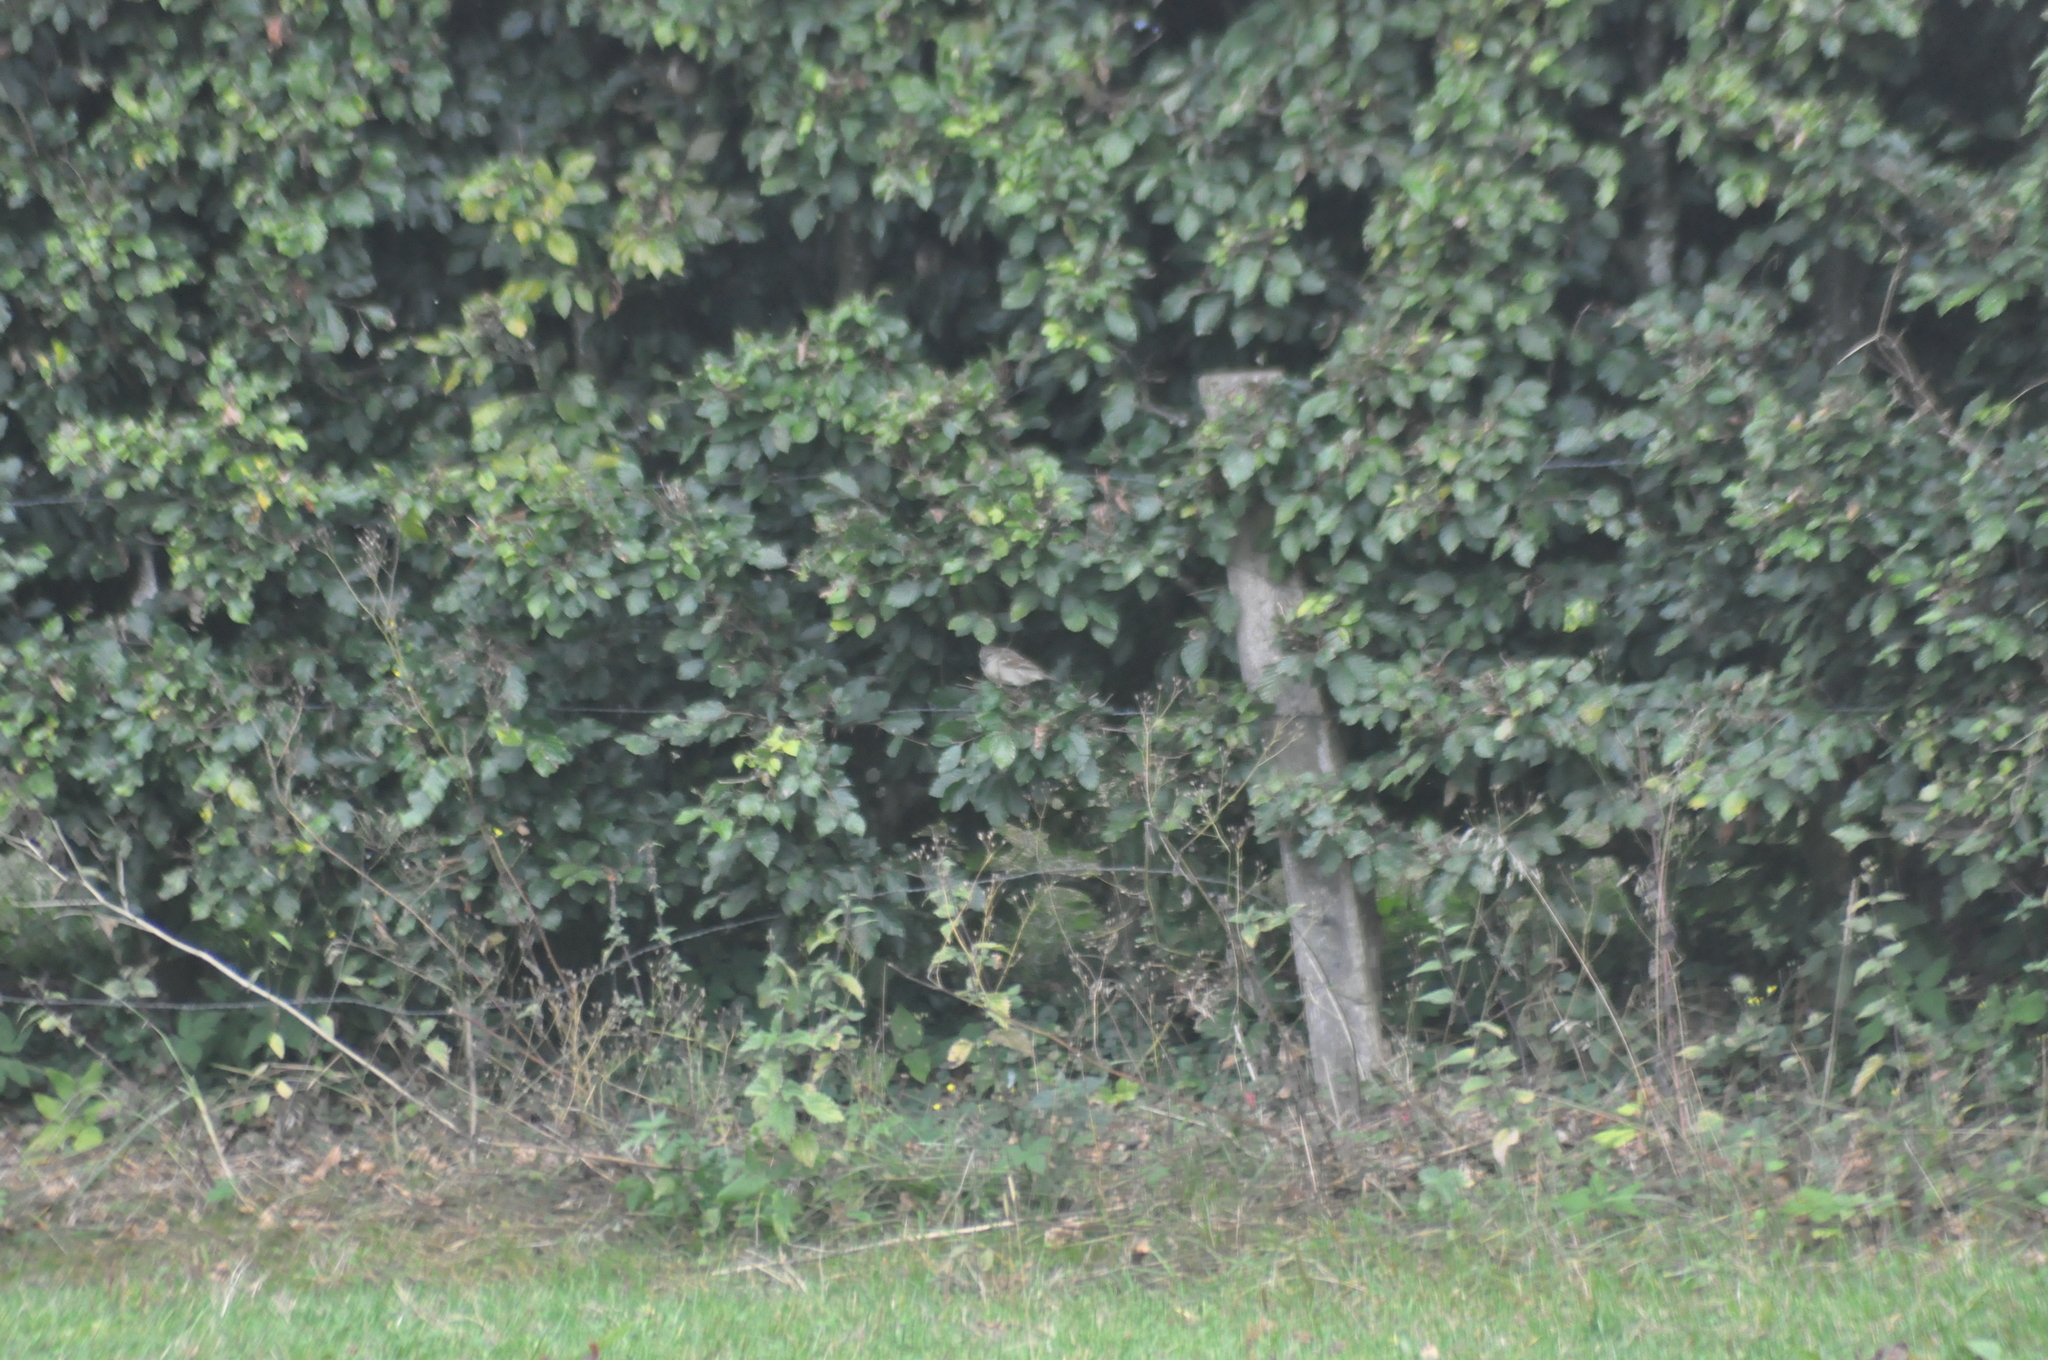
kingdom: Animalia
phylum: Chordata
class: Aves
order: Passeriformes
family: Passeridae
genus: Passer
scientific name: Passer domesticus
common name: House sparrow
